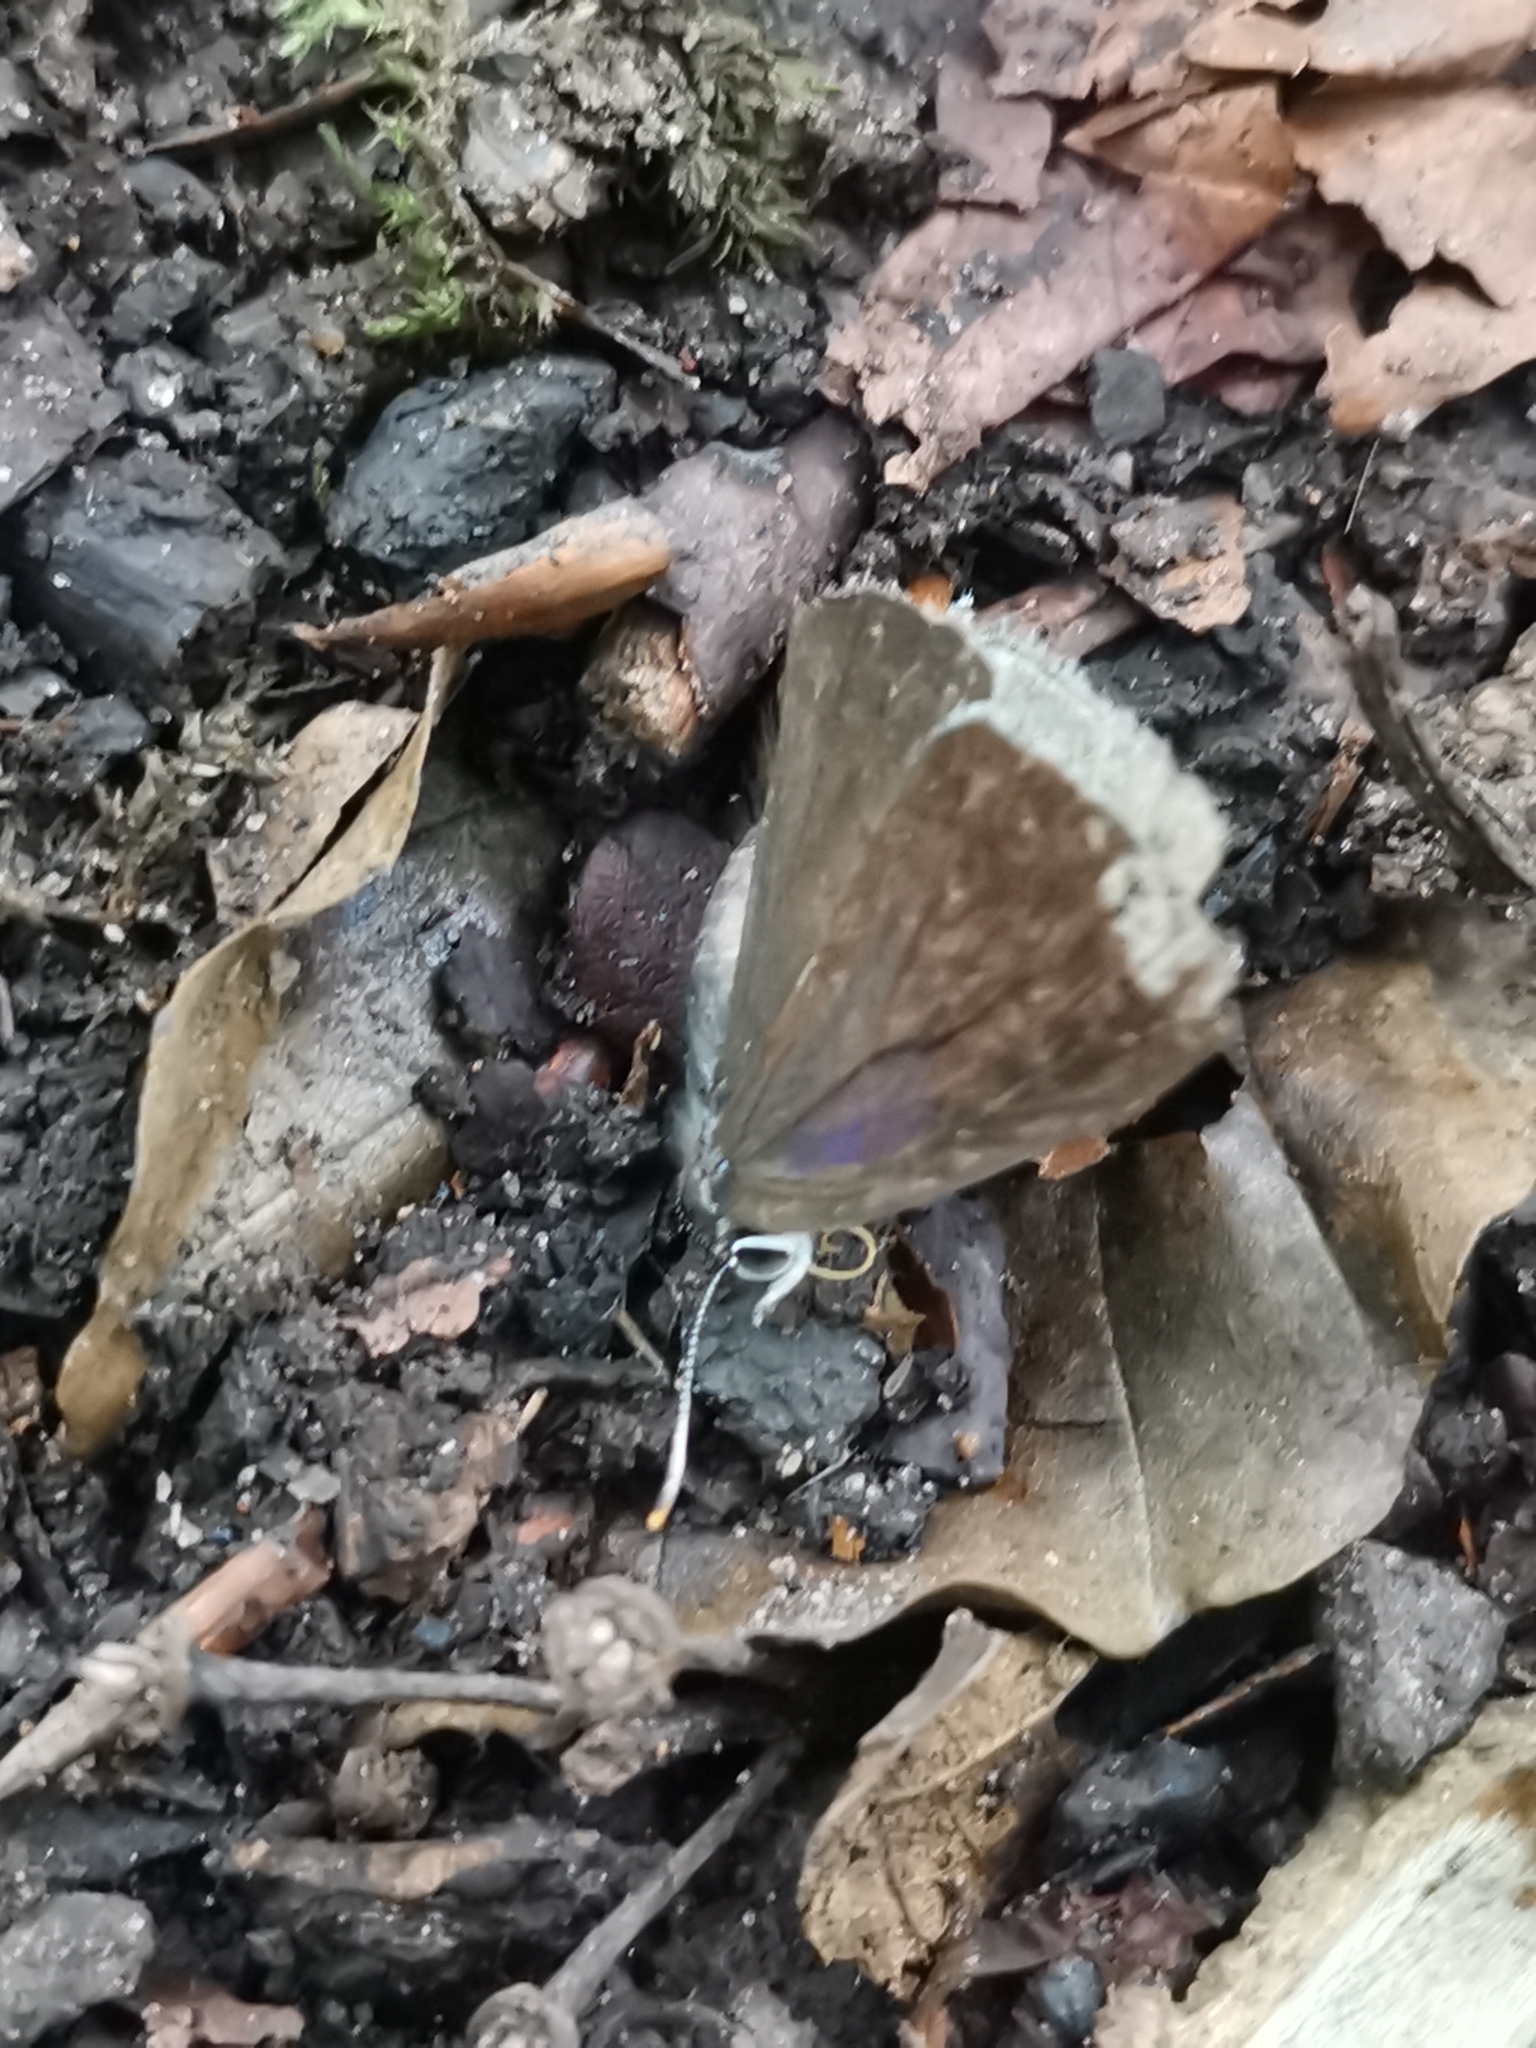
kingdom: Animalia
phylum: Arthropoda
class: Insecta
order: Lepidoptera
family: Lycaenidae
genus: Quercusia
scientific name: Quercusia quercus
